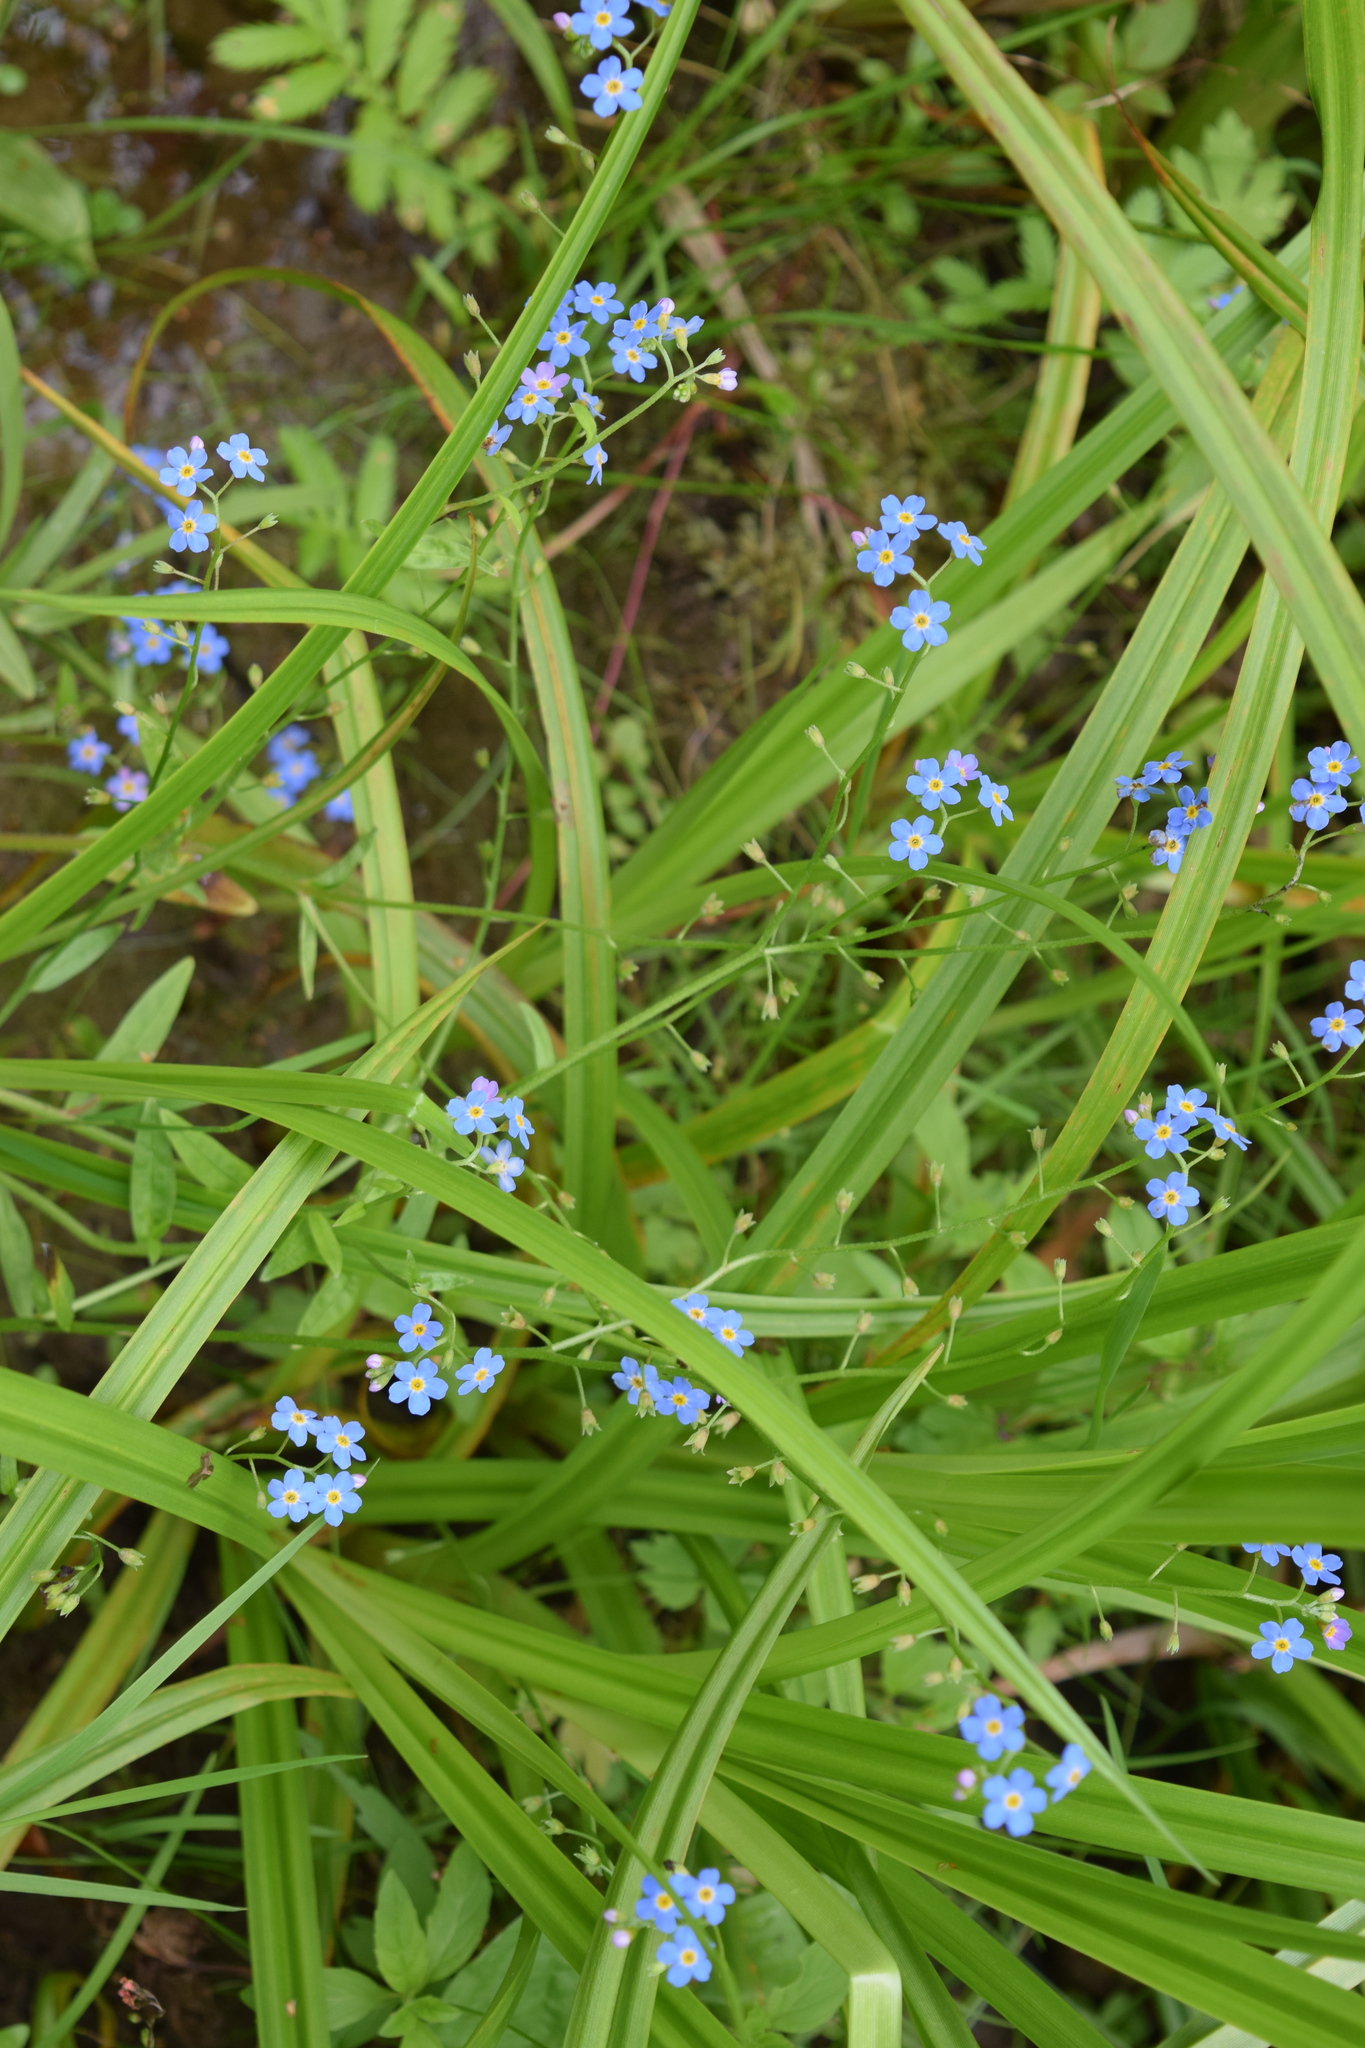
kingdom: Plantae
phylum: Tracheophyta
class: Magnoliopsida
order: Boraginales
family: Boraginaceae
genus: Myosotis
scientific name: Myosotis scorpioides
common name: Water forget-me-not
